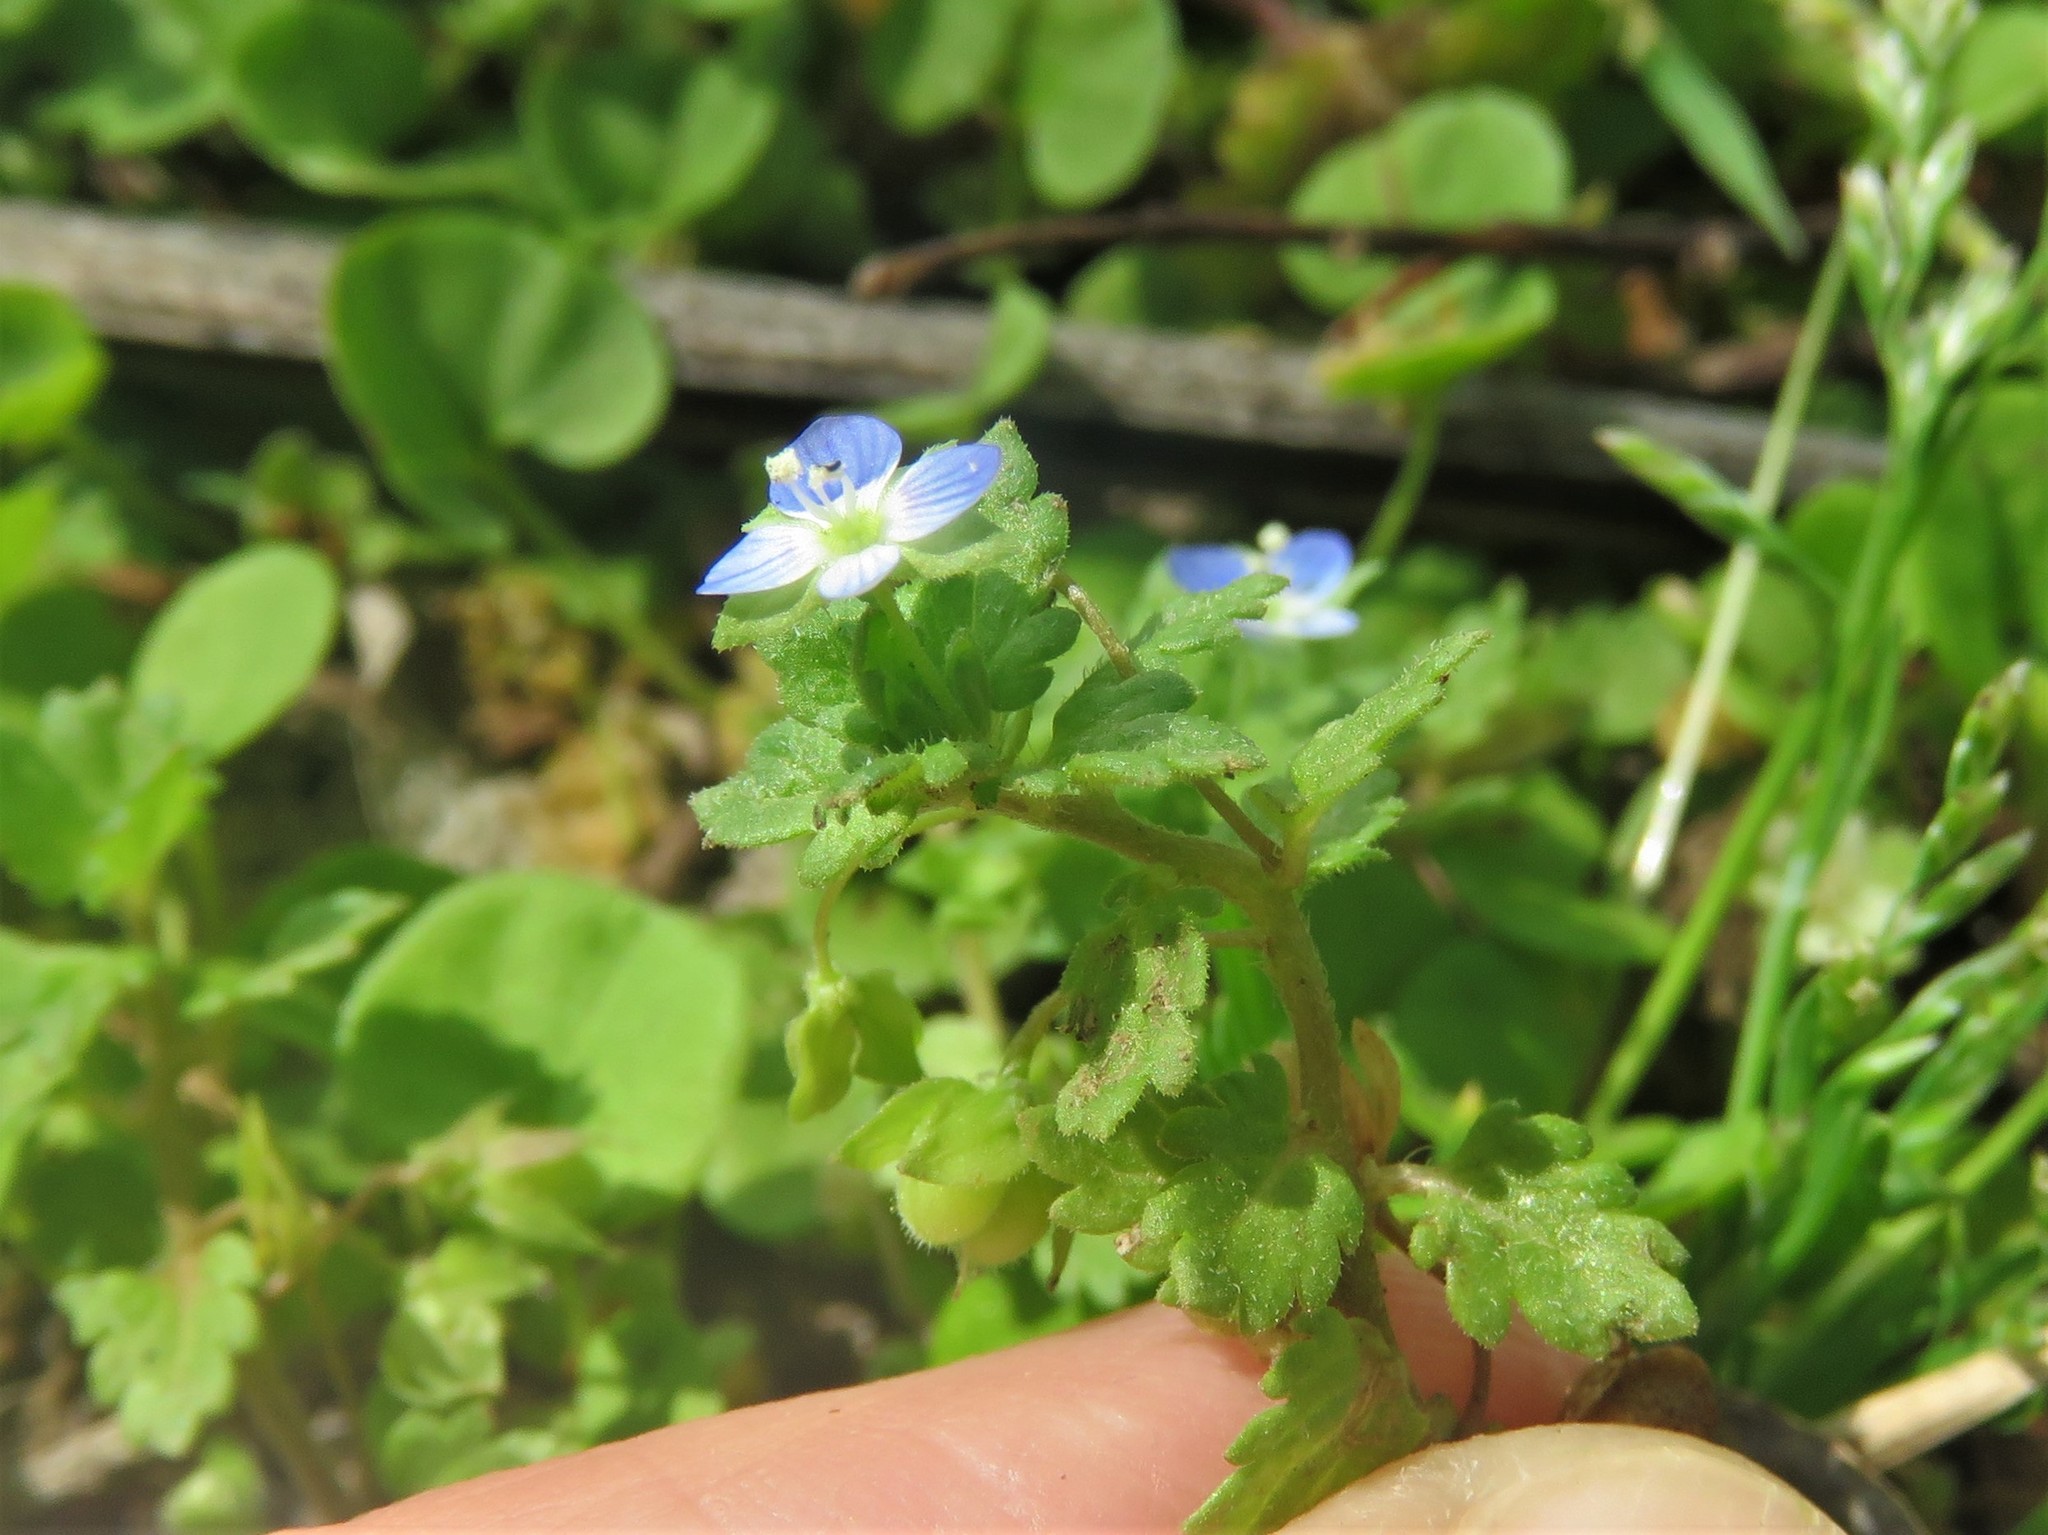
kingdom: Plantae
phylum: Tracheophyta
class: Magnoliopsida
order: Lamiales
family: Plantaginaceae
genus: Veronica
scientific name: Veronica polita
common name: Grey field-speedwell
